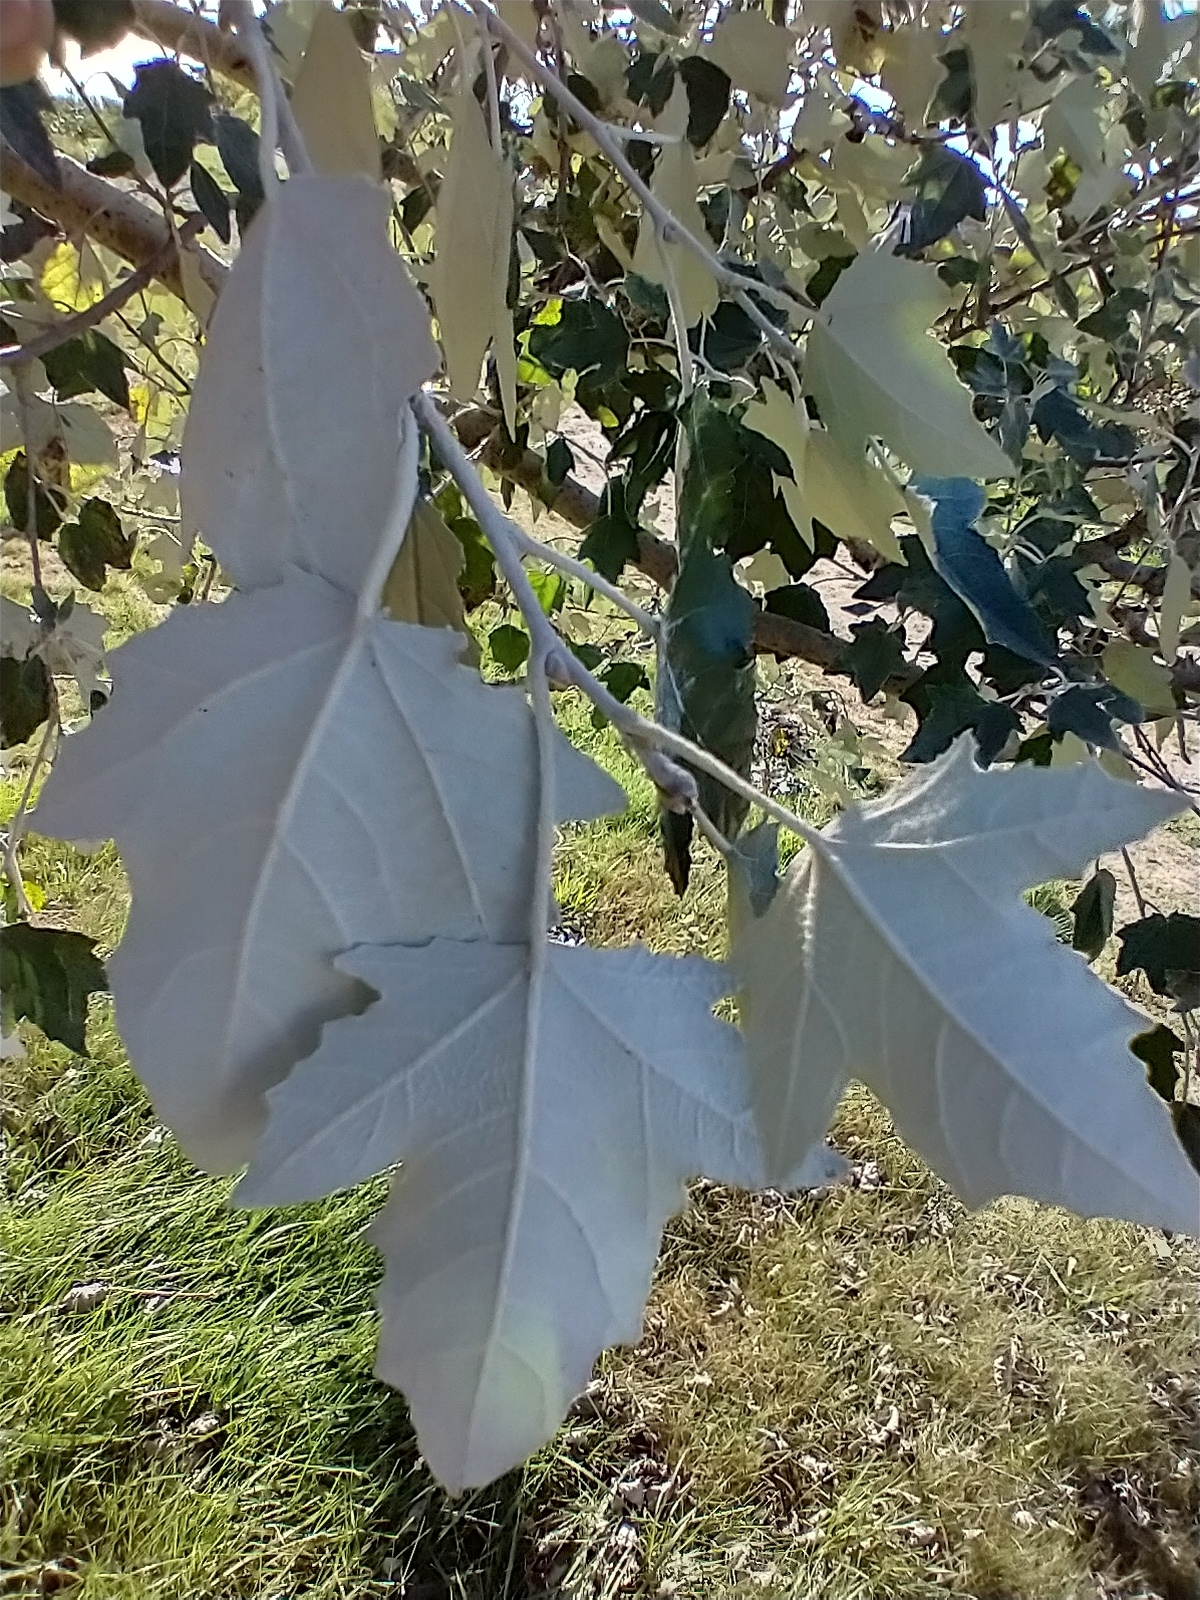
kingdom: Plantae
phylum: Tracheophyta
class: Magnoliopsida
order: Malpighiales
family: Salicaceae
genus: Populus
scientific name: Populus alba
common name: White poplar
